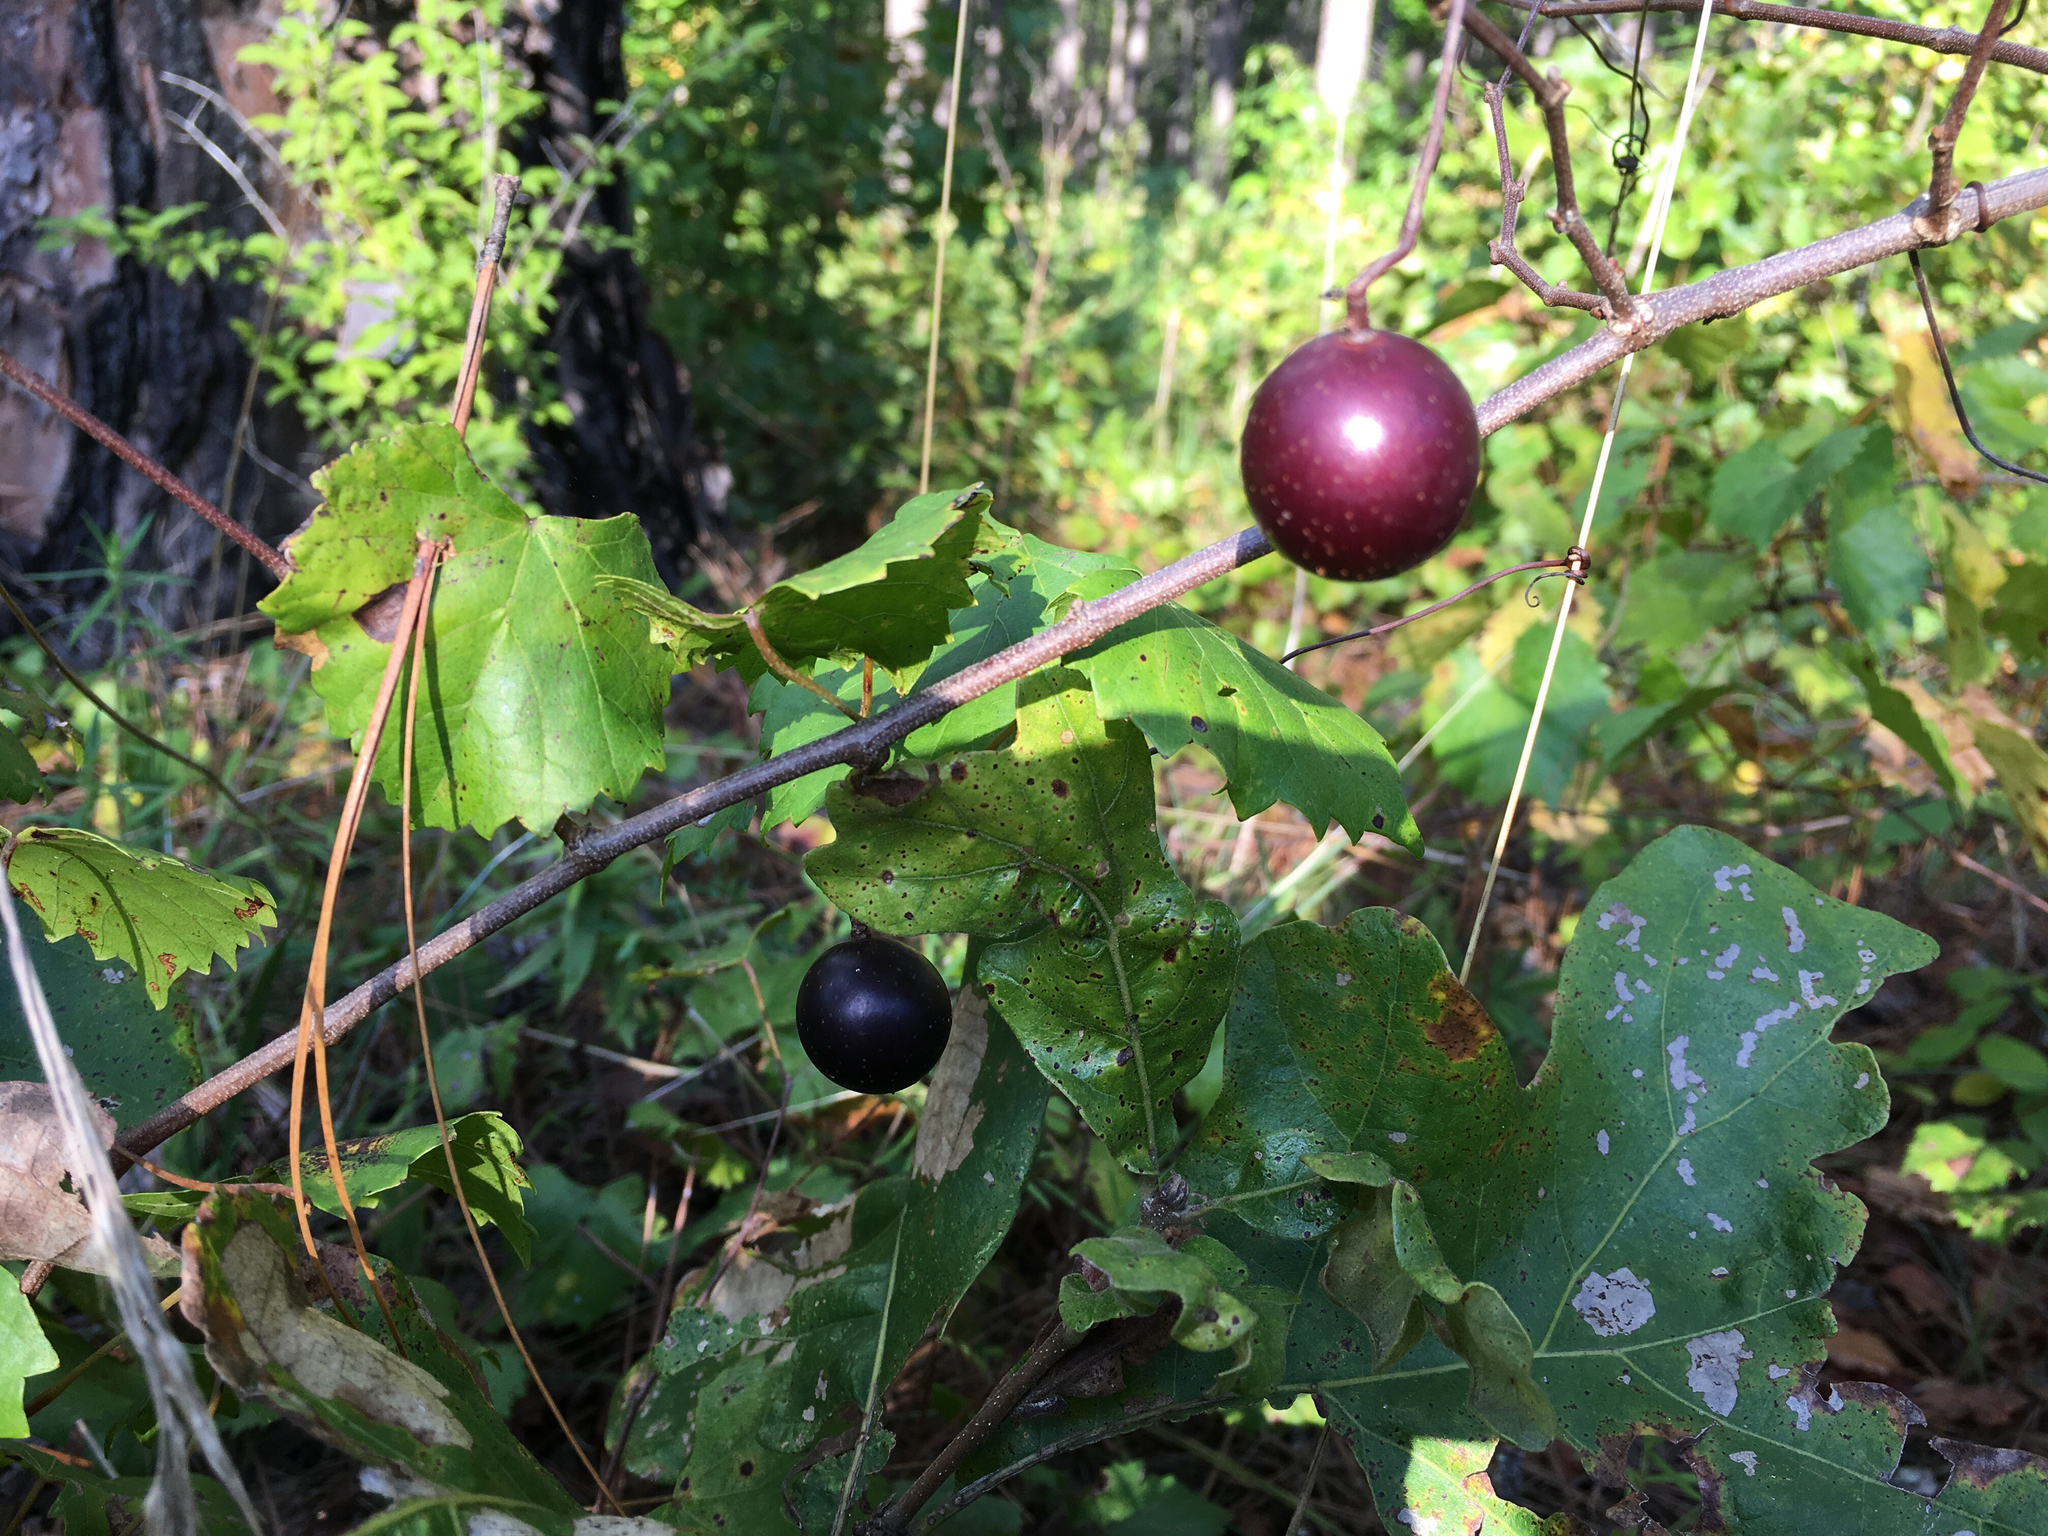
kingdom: Plantae
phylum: Tracheophyta
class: Magnoliopsida
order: Vitales
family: Vitaceae
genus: Vitis
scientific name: Vitis rotundifolia
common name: Muscadine grape
